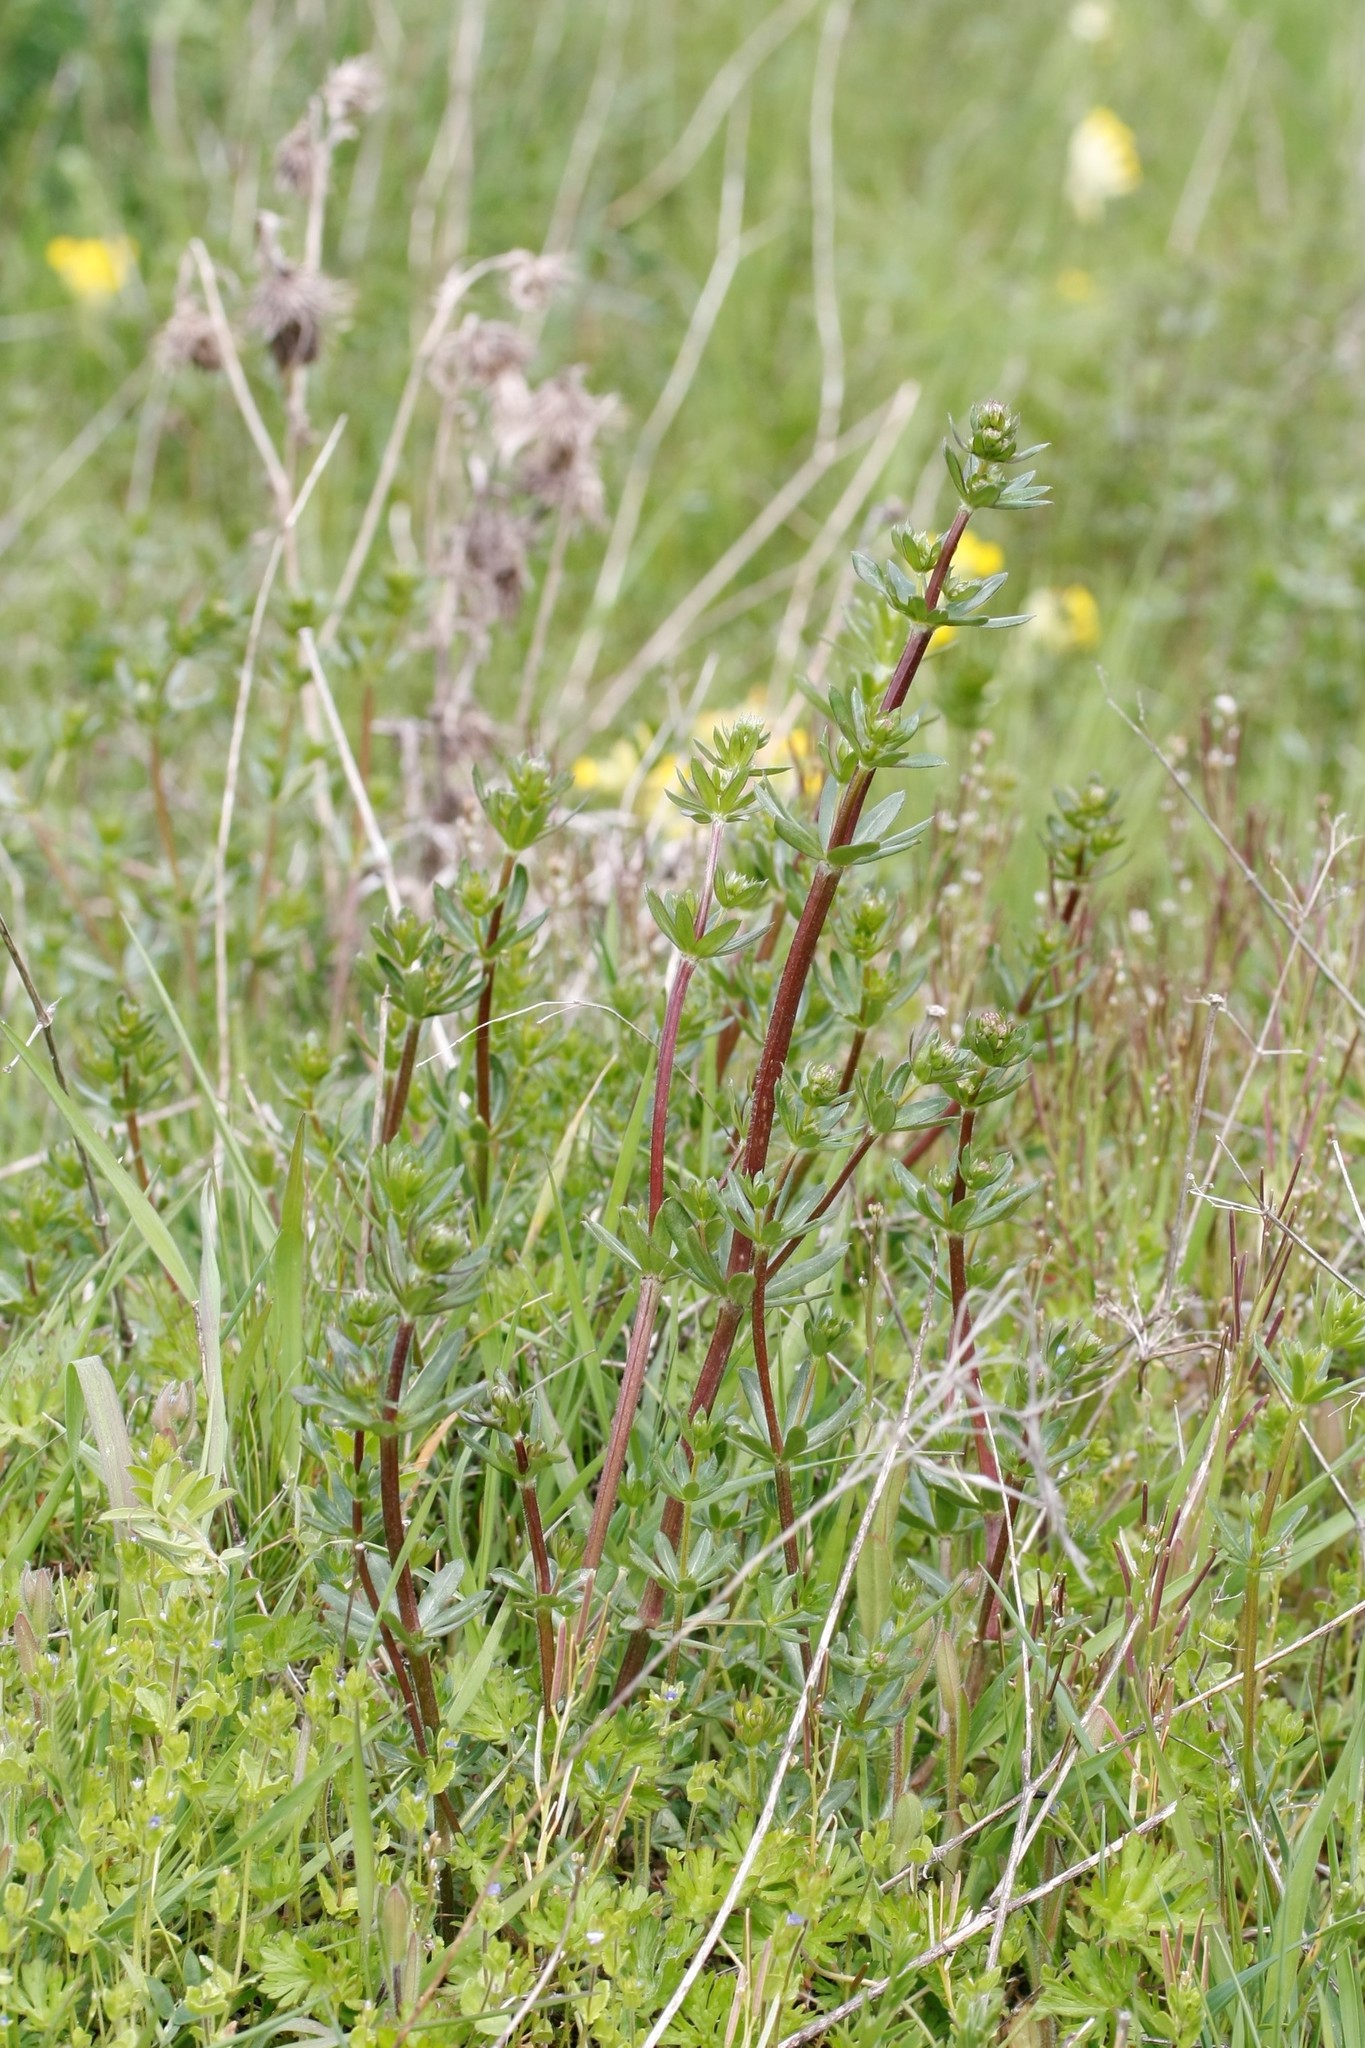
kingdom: Plantae
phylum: Tracheophyta
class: Magnoliopsida
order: Gentianales
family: Rubiaceae
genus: Galium
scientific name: Galium mollugo
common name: Hedge bedstraw
